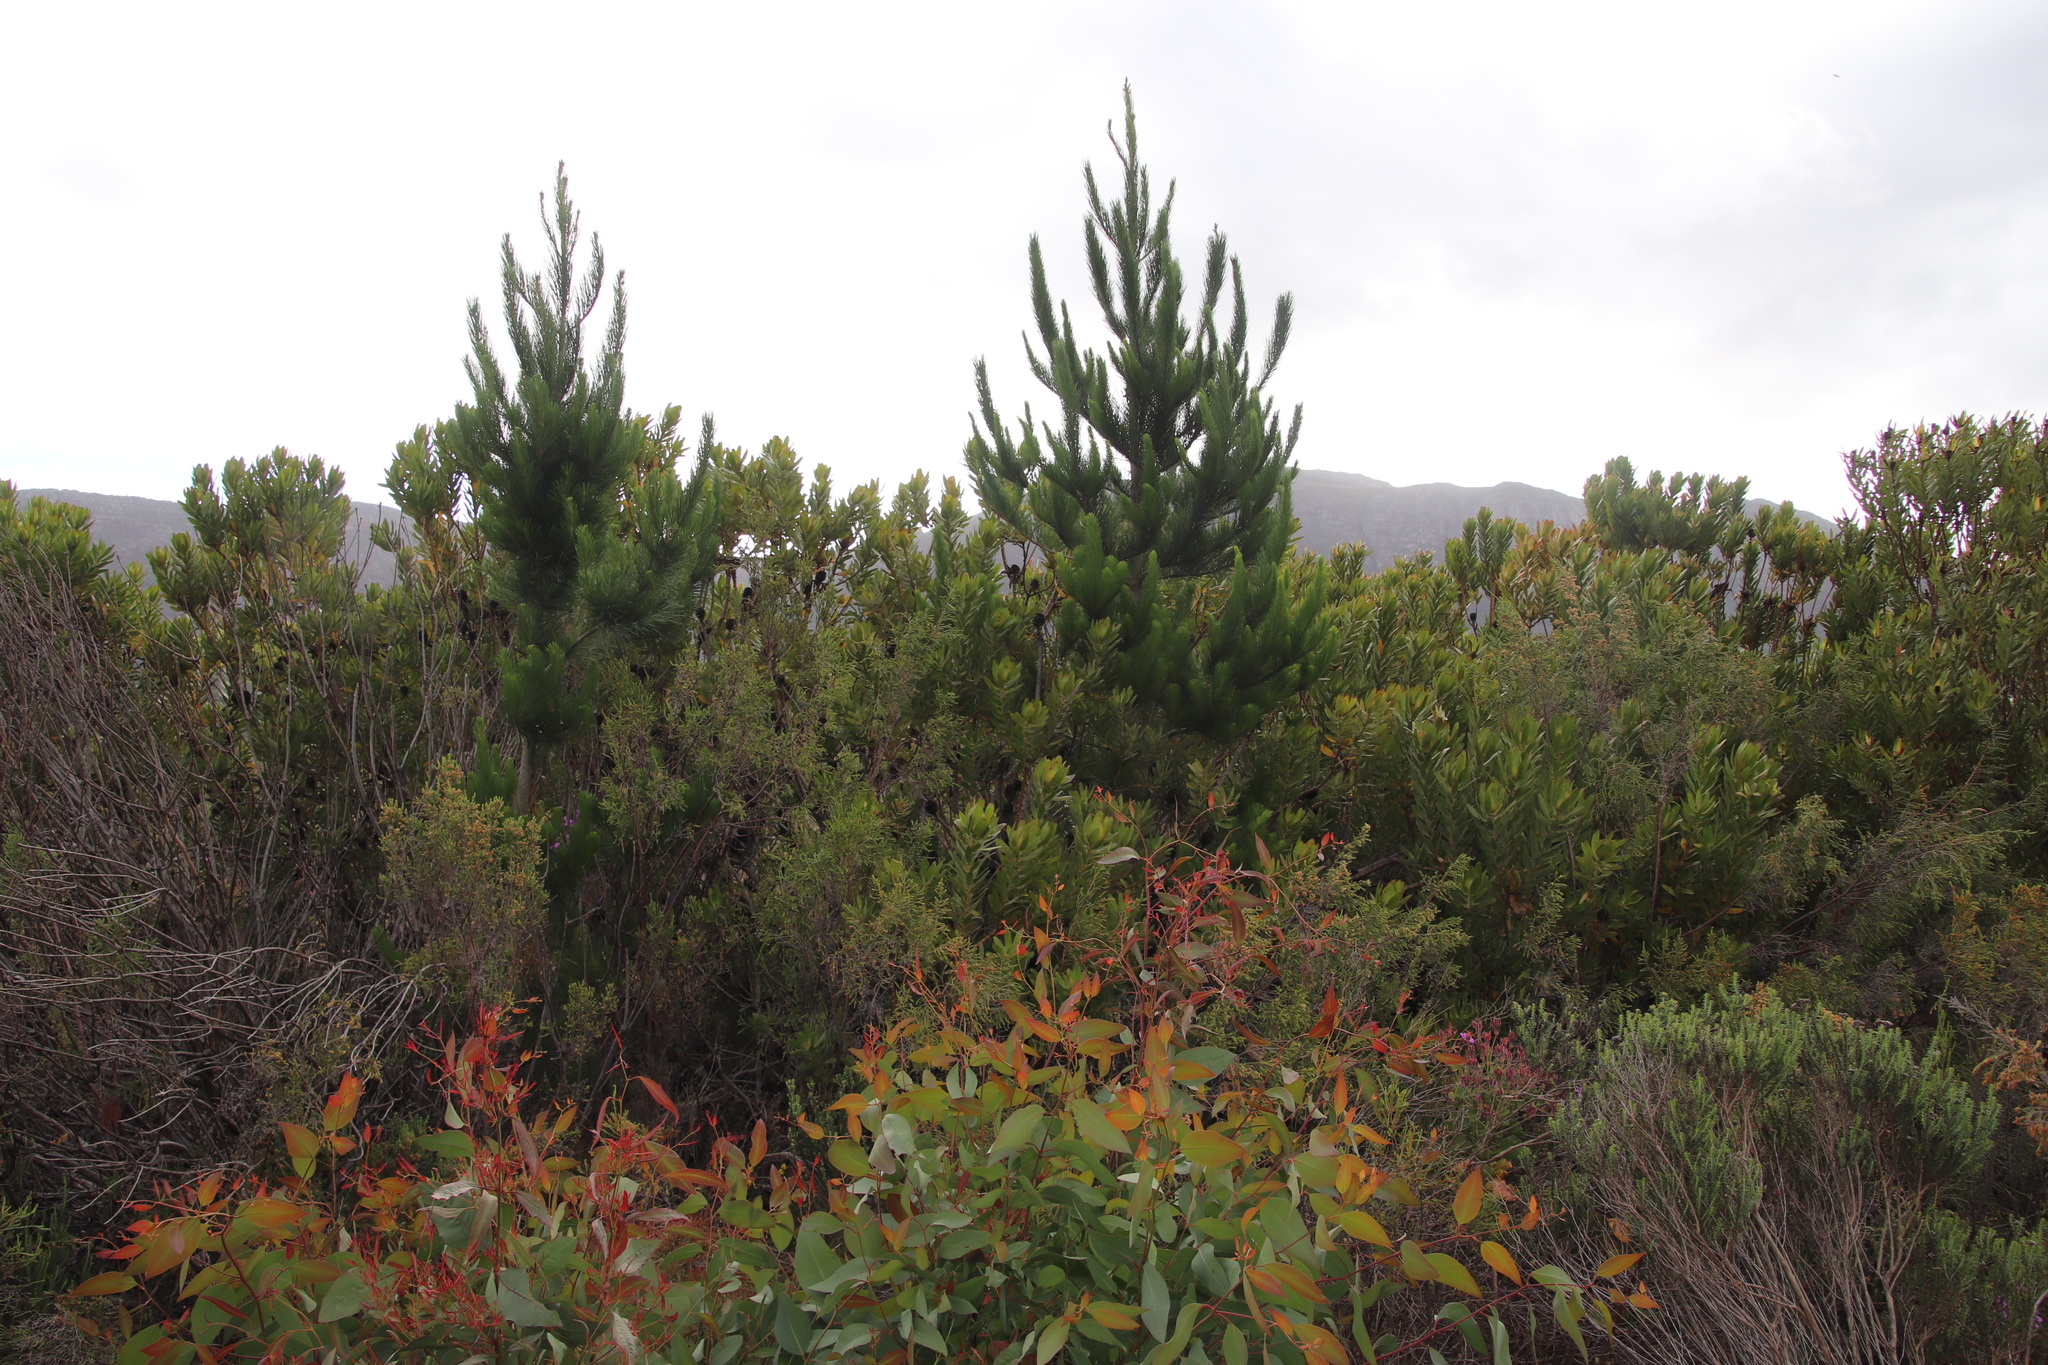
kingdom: Plantae
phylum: Tracheophyta
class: Pinopsida
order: Pinales
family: Pinaceae
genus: Pinus
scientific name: Pinus radiata
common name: Monterey pine
